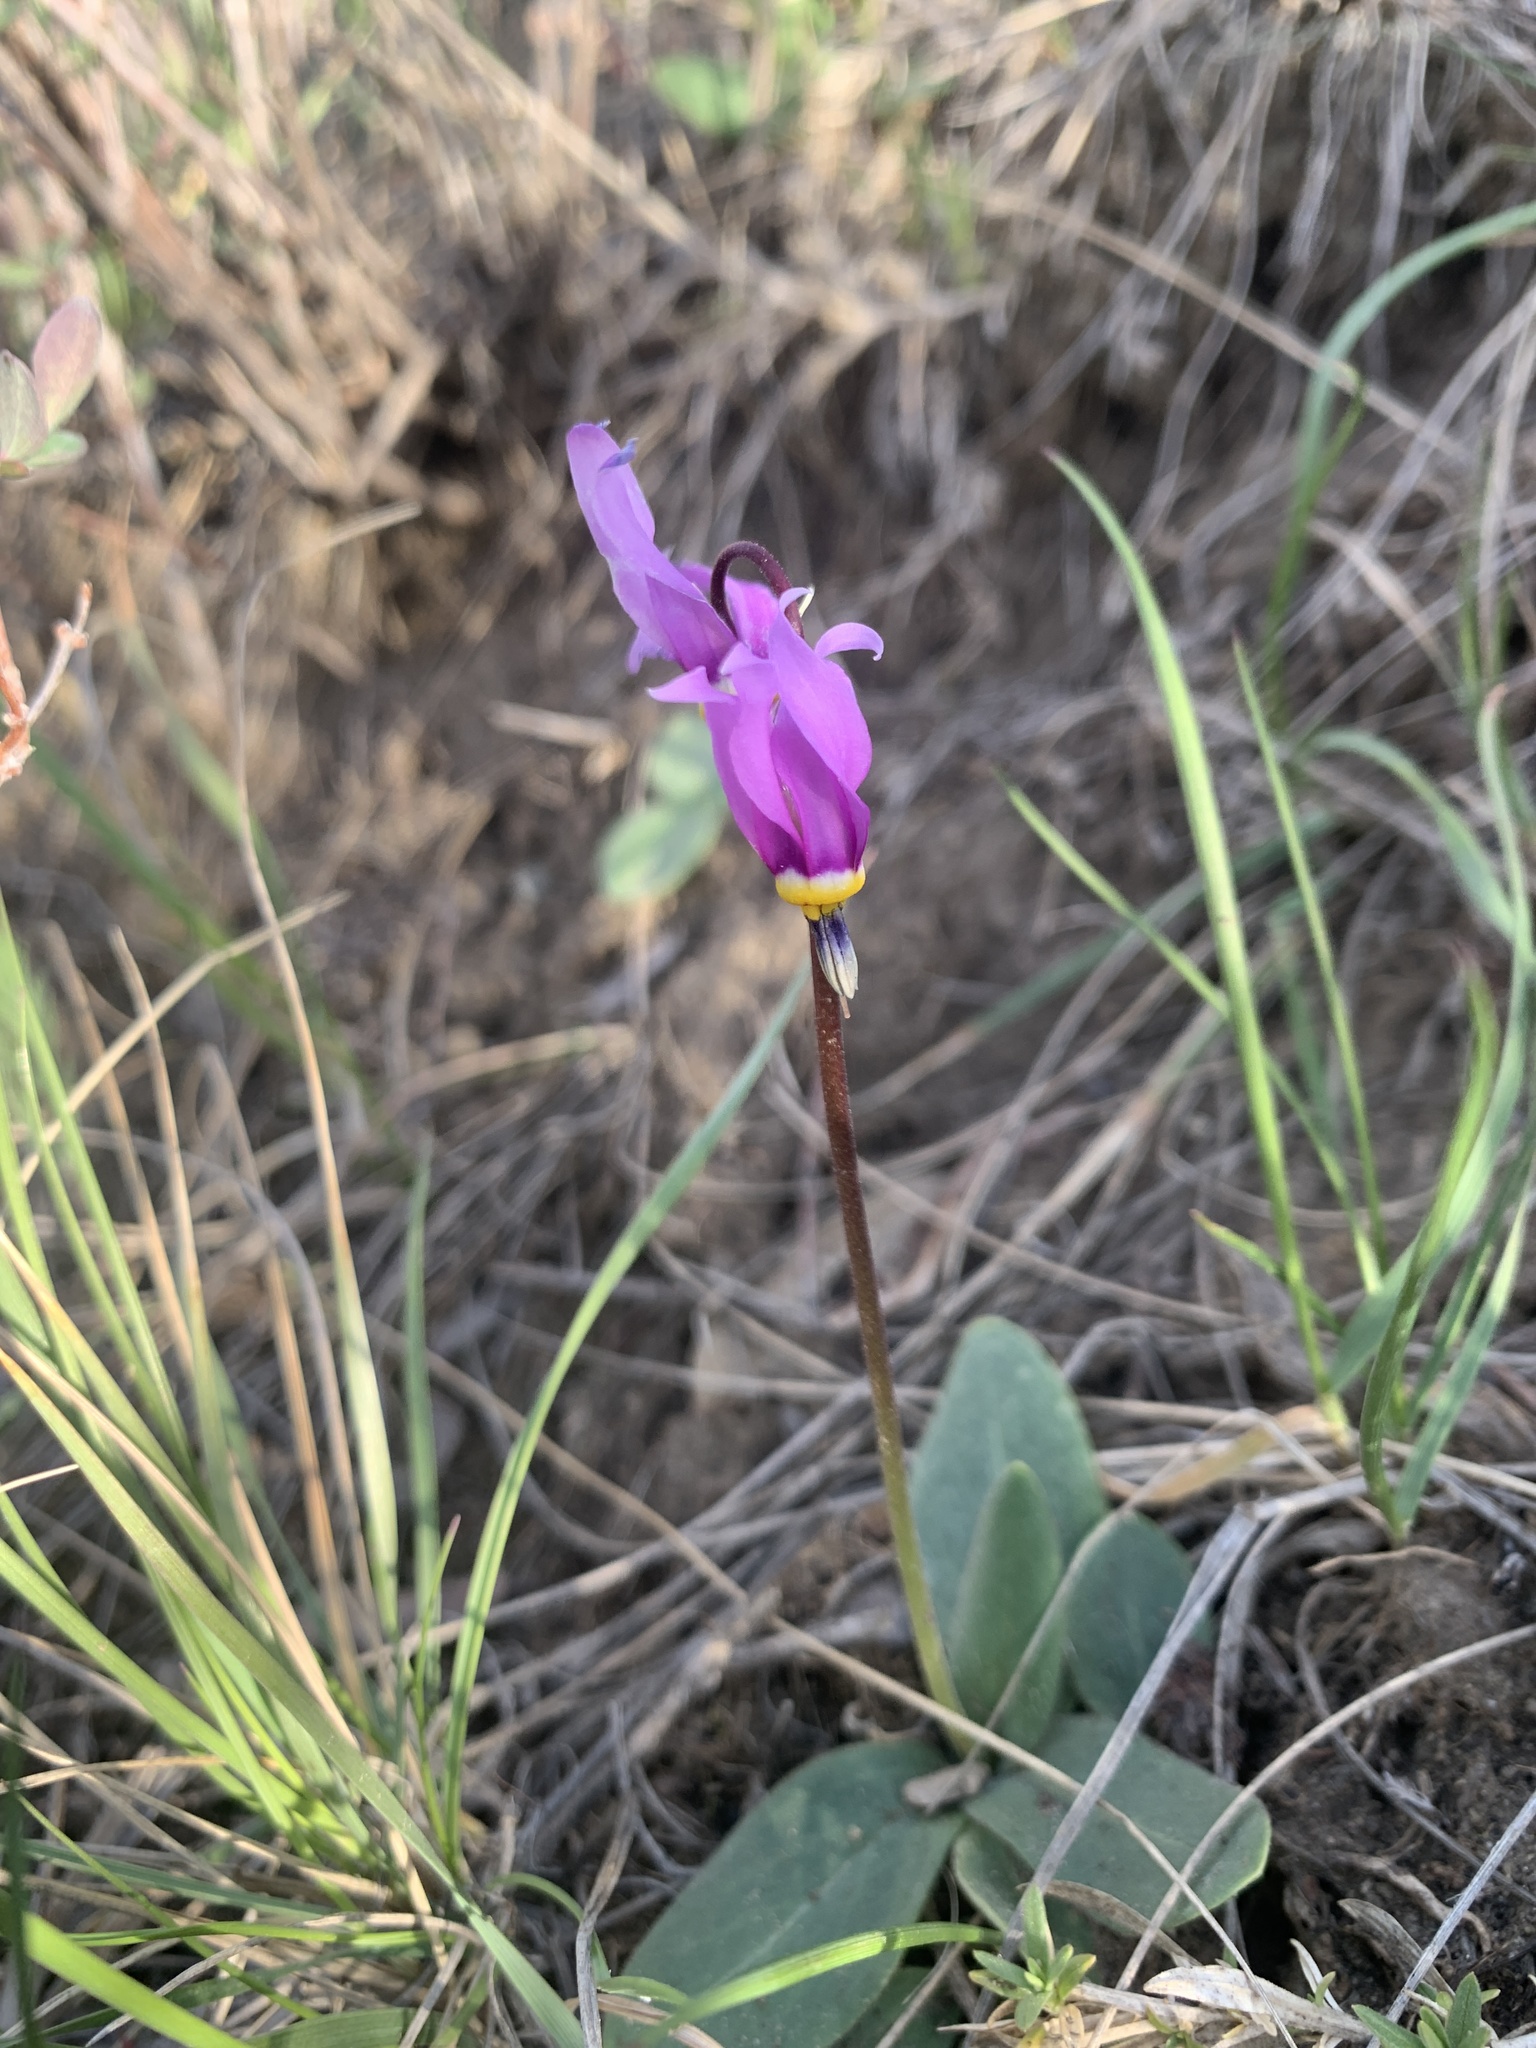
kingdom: Plantae
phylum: Tracheophyta
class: Magnoliopsida
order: Ericales
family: Primulaceae
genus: Dodecatheon
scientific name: Dodecatheon conjugens
